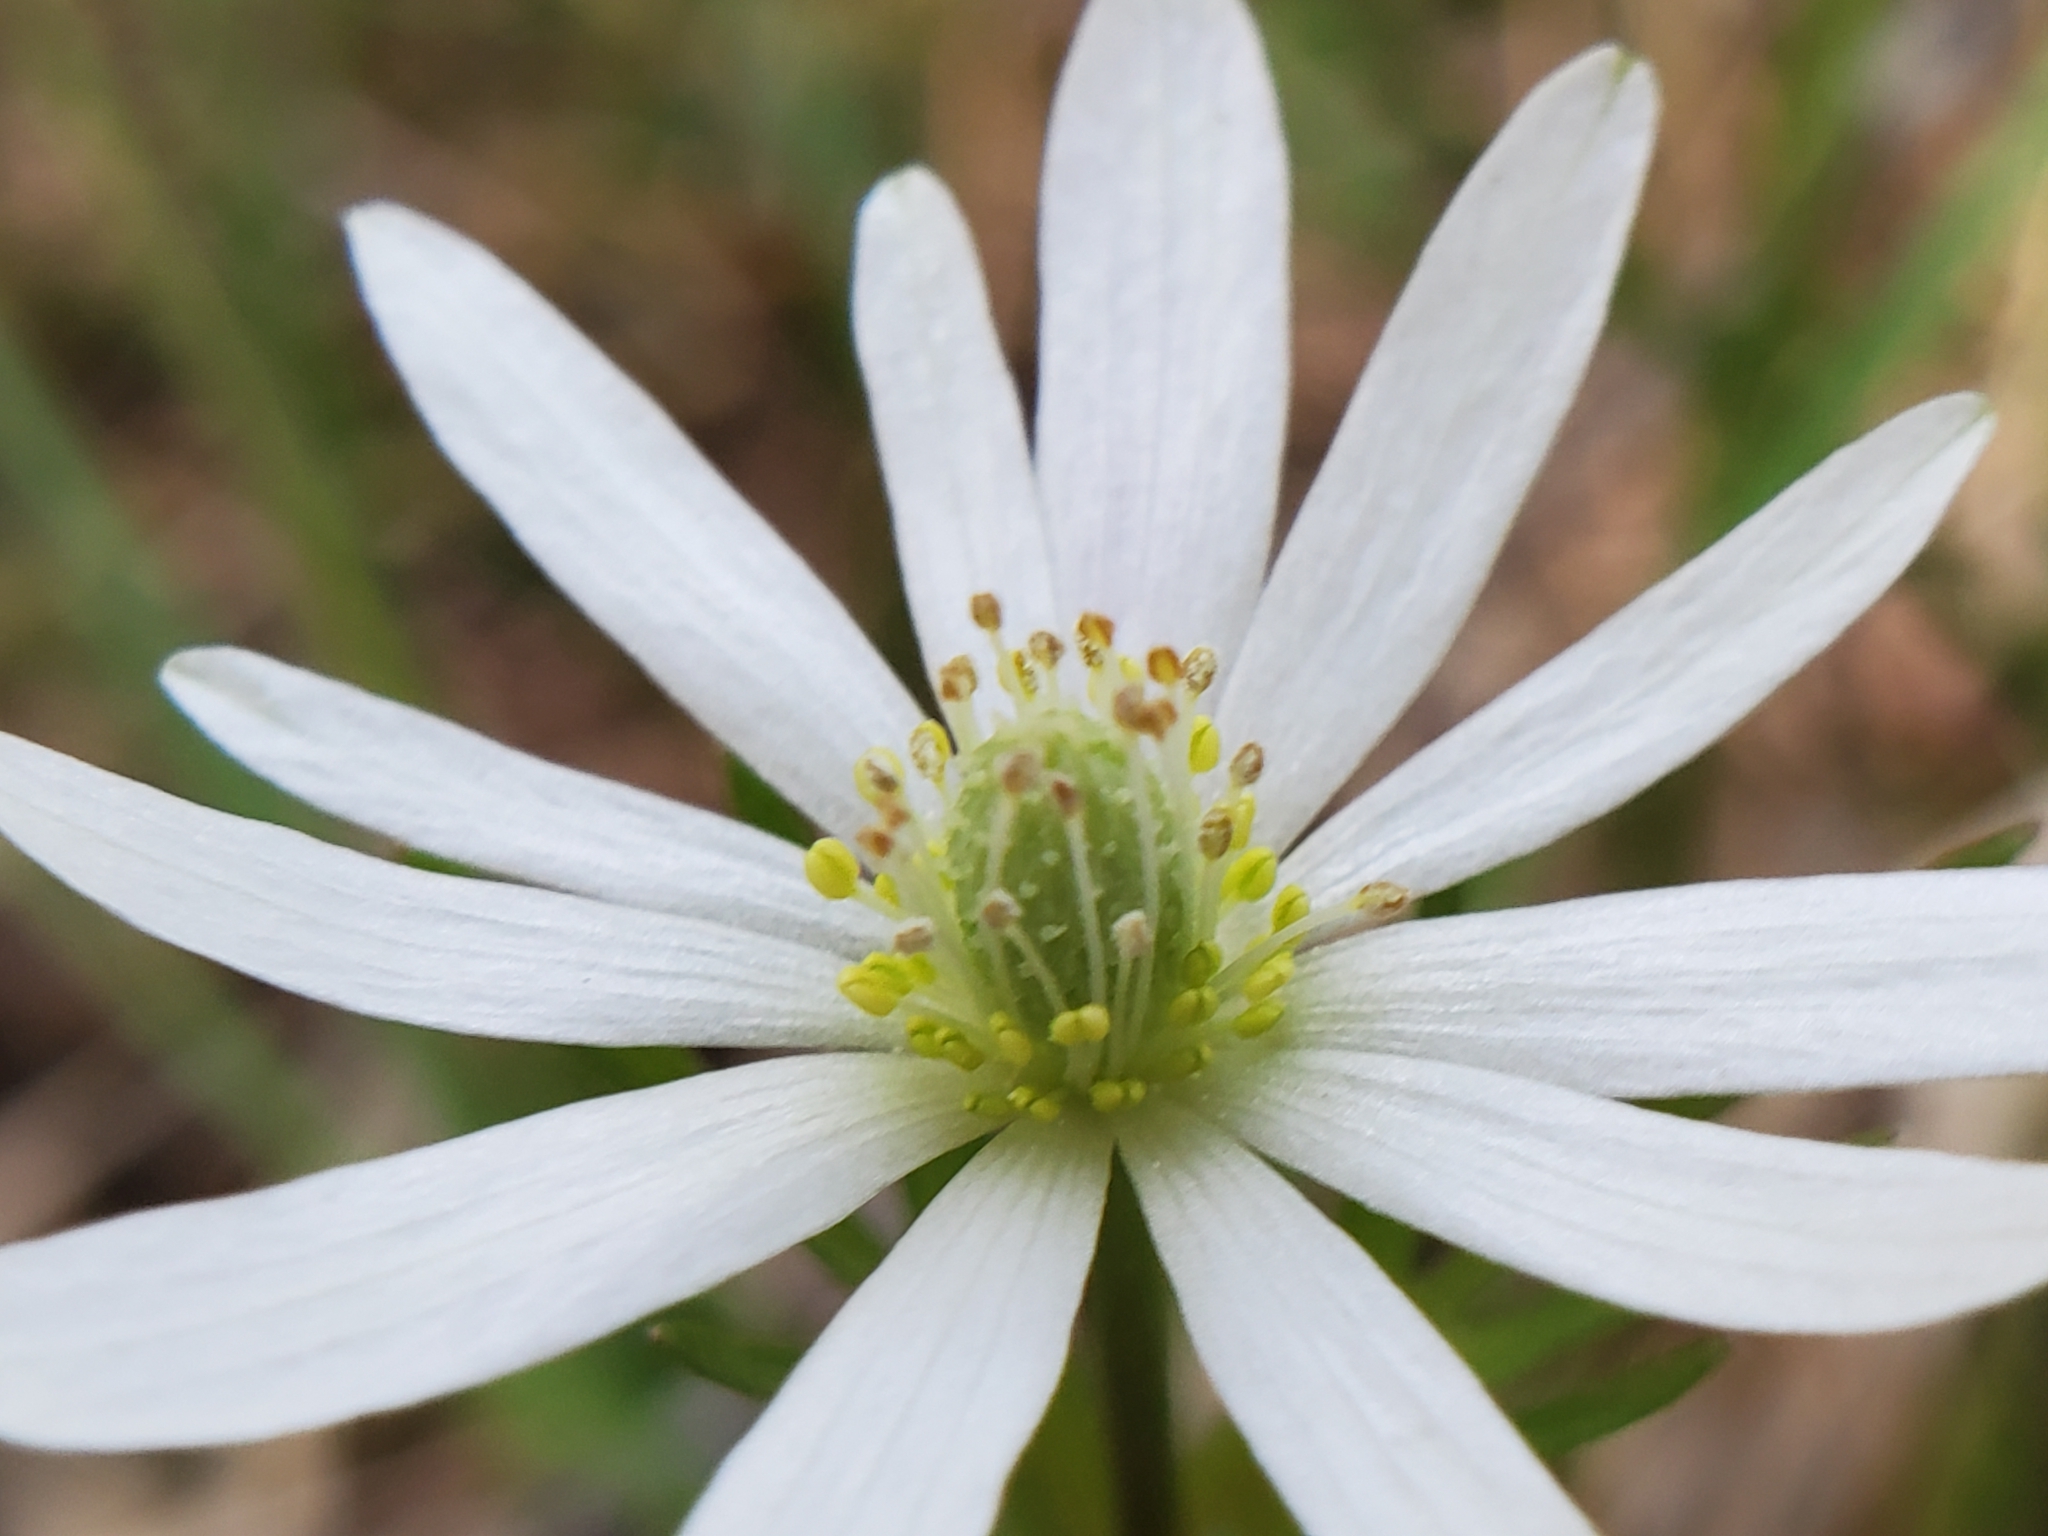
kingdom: Plantae
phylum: Tracheophyta
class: Magnoliopsida
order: Ranunculales
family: Ranunculaceae
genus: Anemone
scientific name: Anemone berlandieri
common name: Ten-petal anemone
